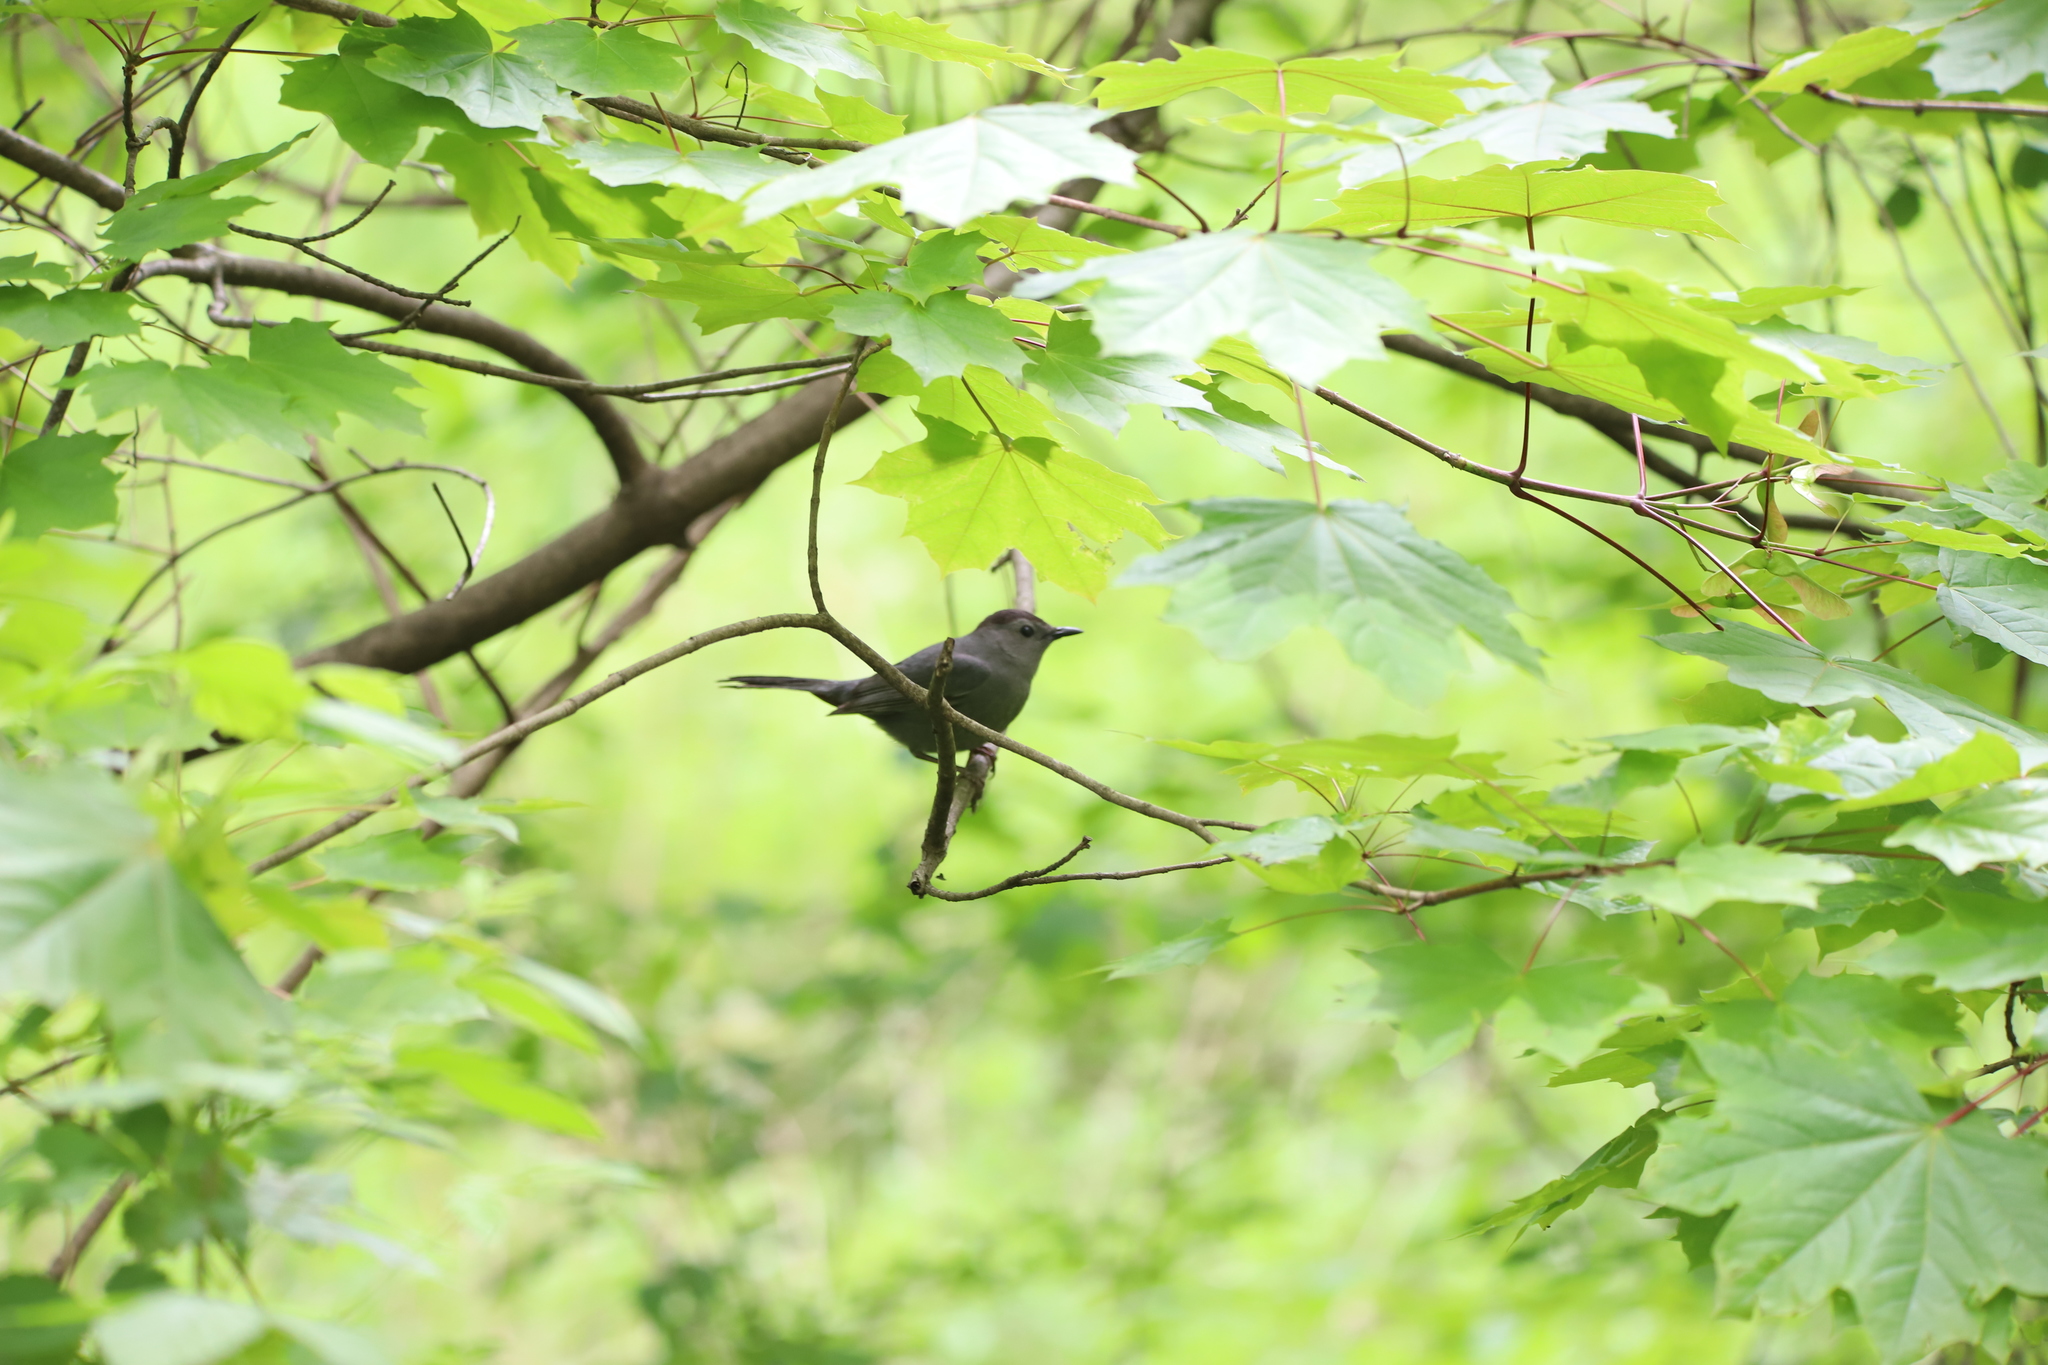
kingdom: Animalia
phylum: Chordata
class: Aves
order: Passeriformes
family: Mimidae
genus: Dumetella
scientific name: Dumetella carolinensis
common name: Gray catbird
